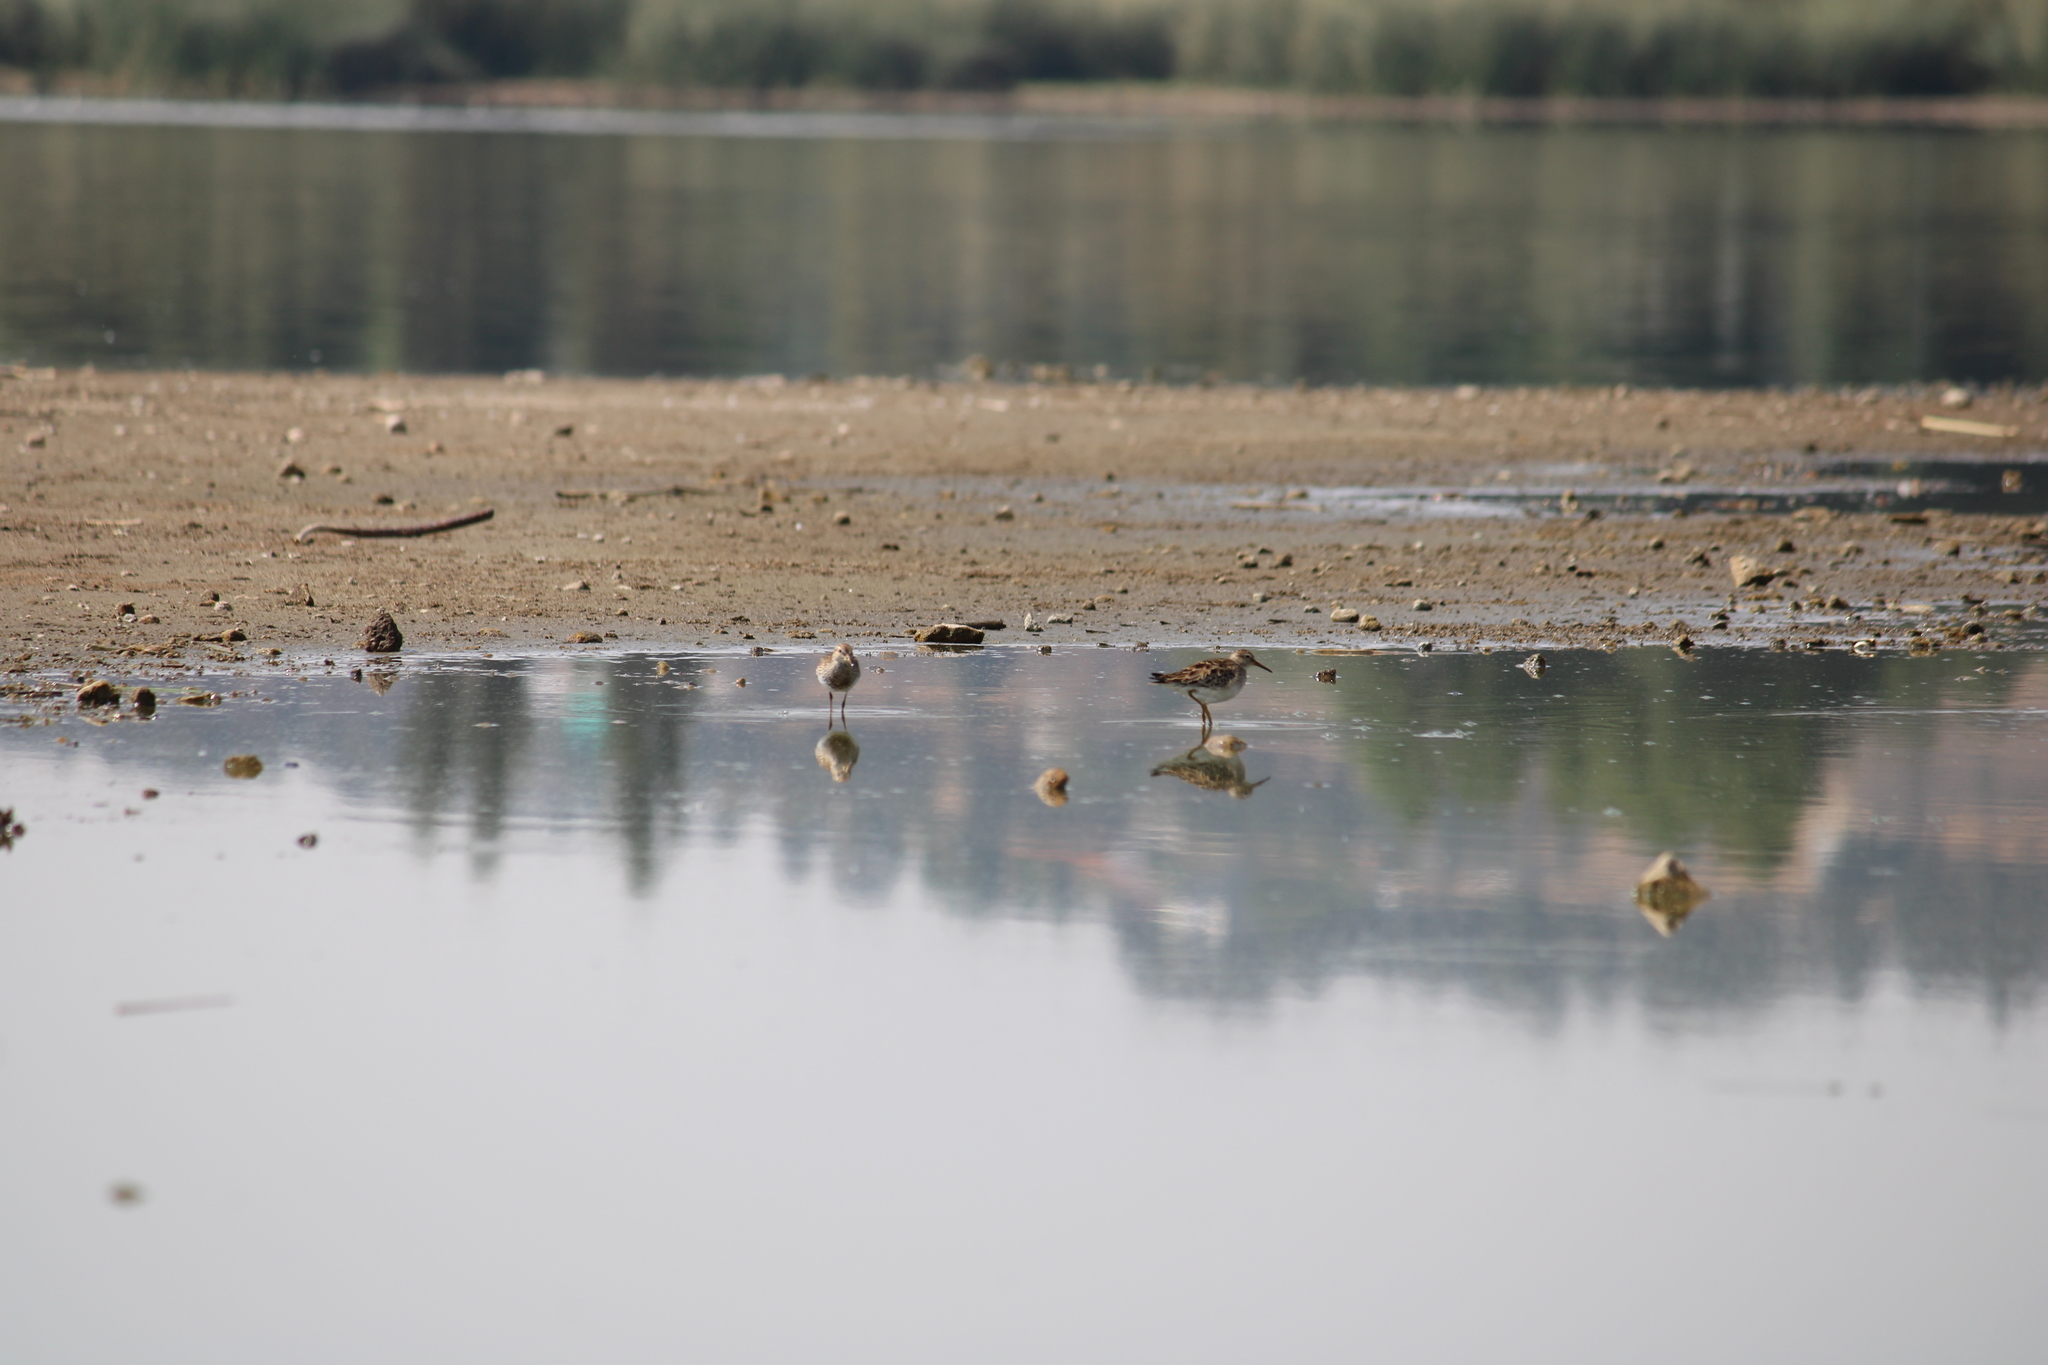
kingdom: Animalia
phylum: Chordata
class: Aves
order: Charadriiformes
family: Scolopacidae
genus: Calidris
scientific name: Calidris melanotos
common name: Pectoral sandpiper
